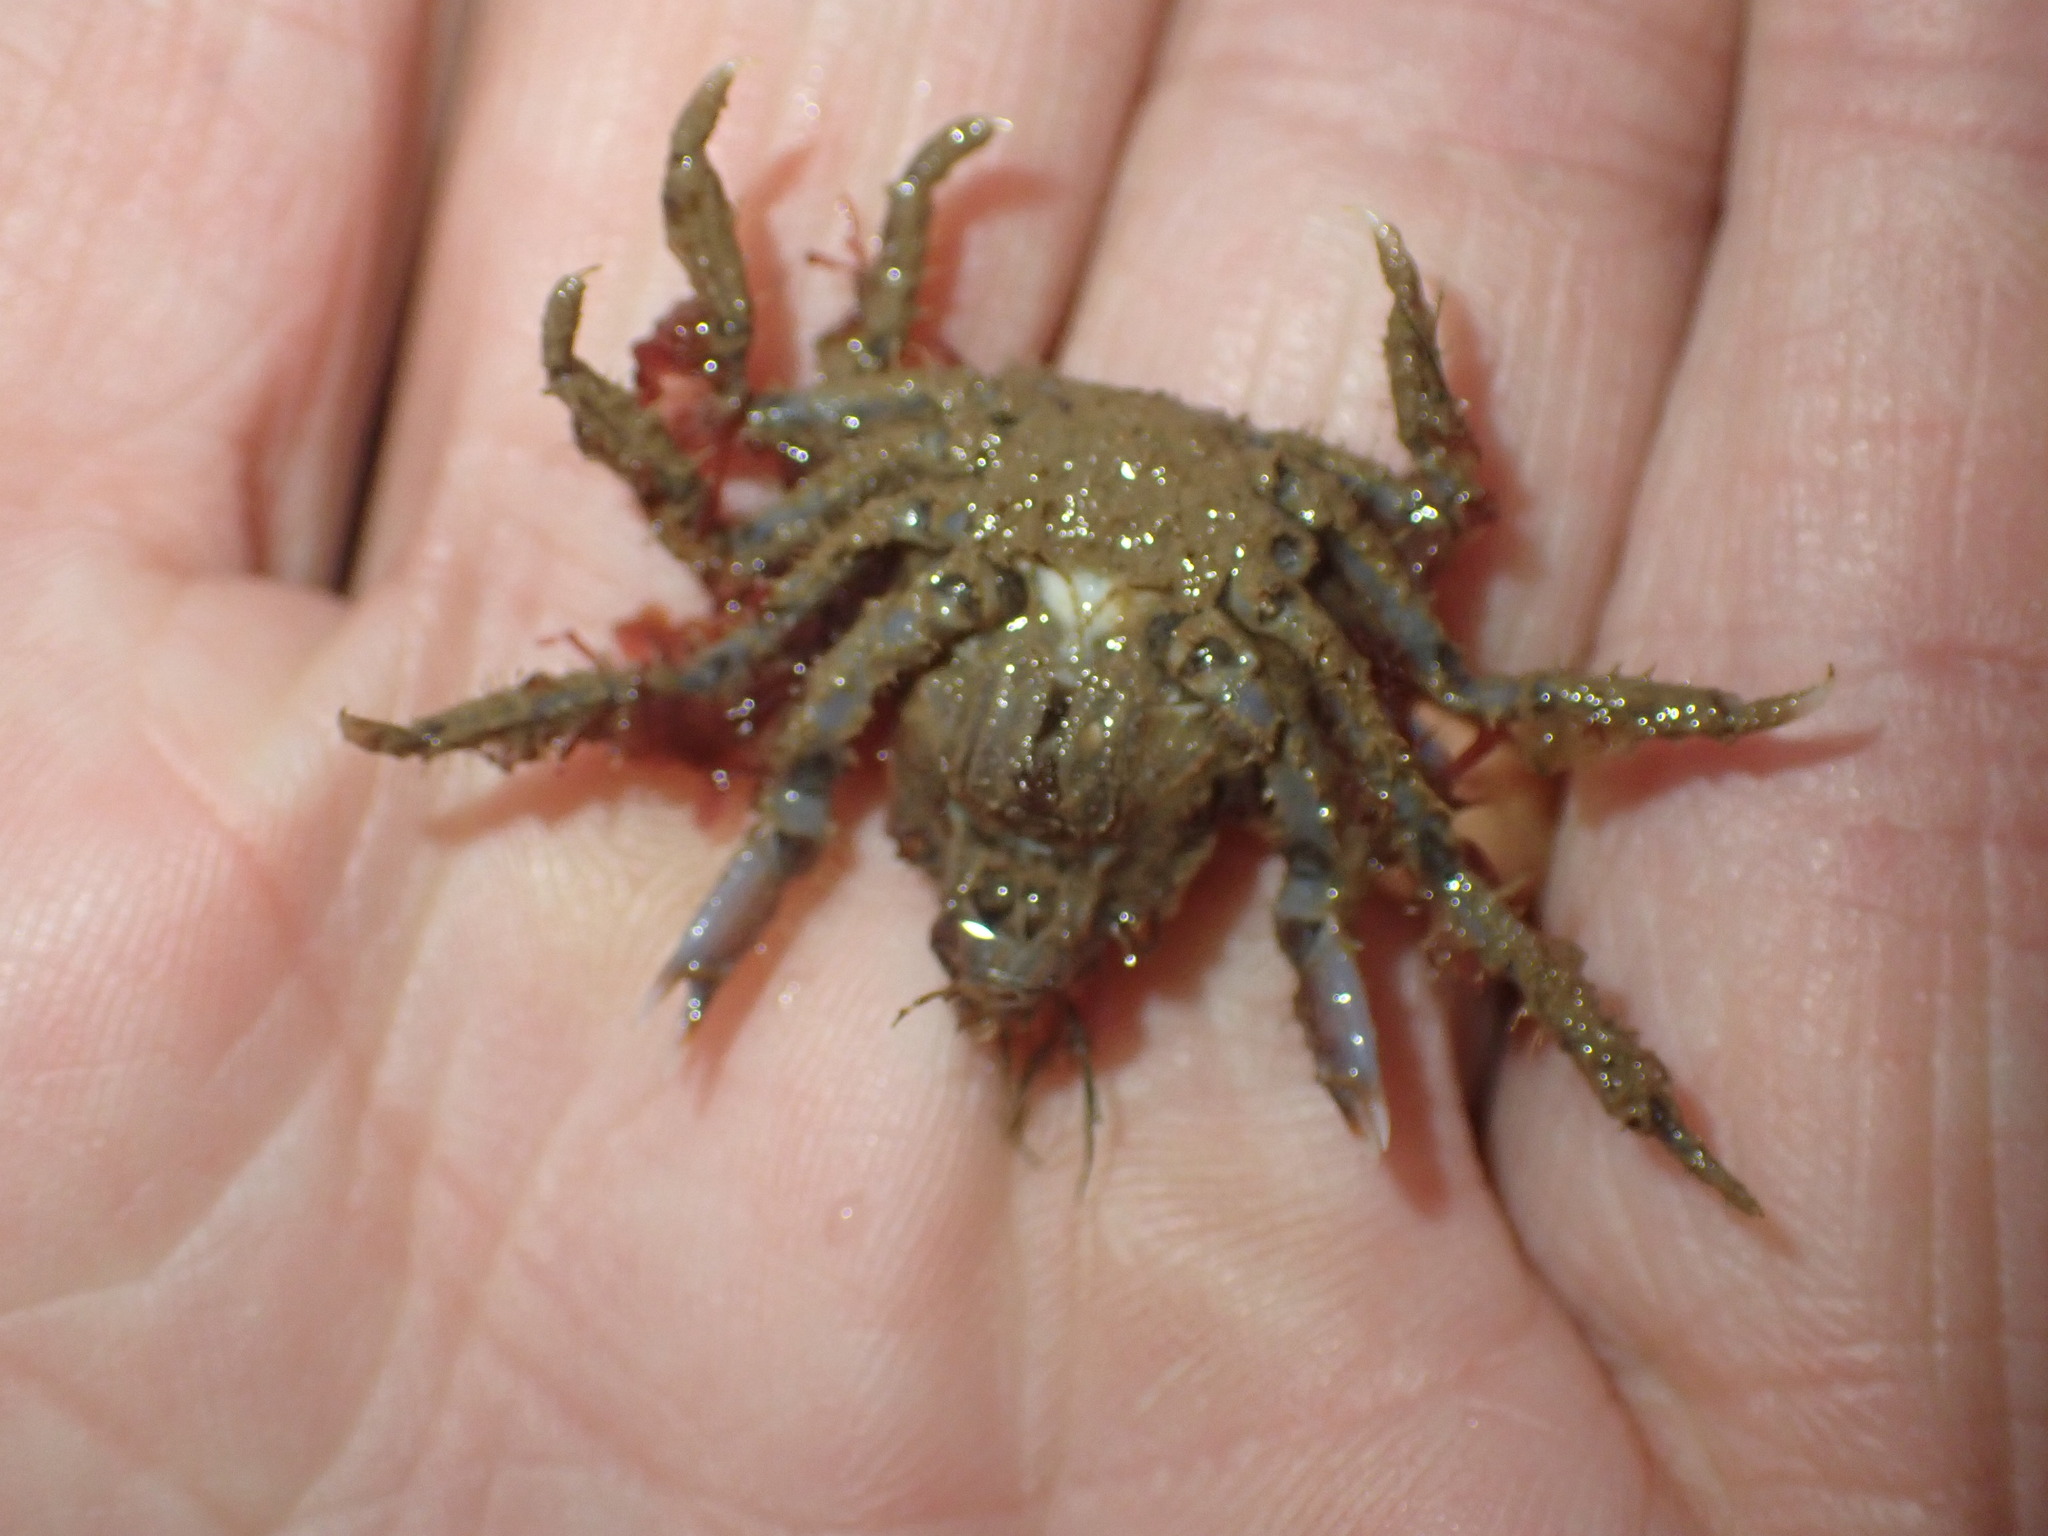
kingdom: Animalia
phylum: Arthropoda
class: Malacostraca
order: Decapoda
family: Oregoniidae
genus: Hyas
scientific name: Hyas coarctatus
